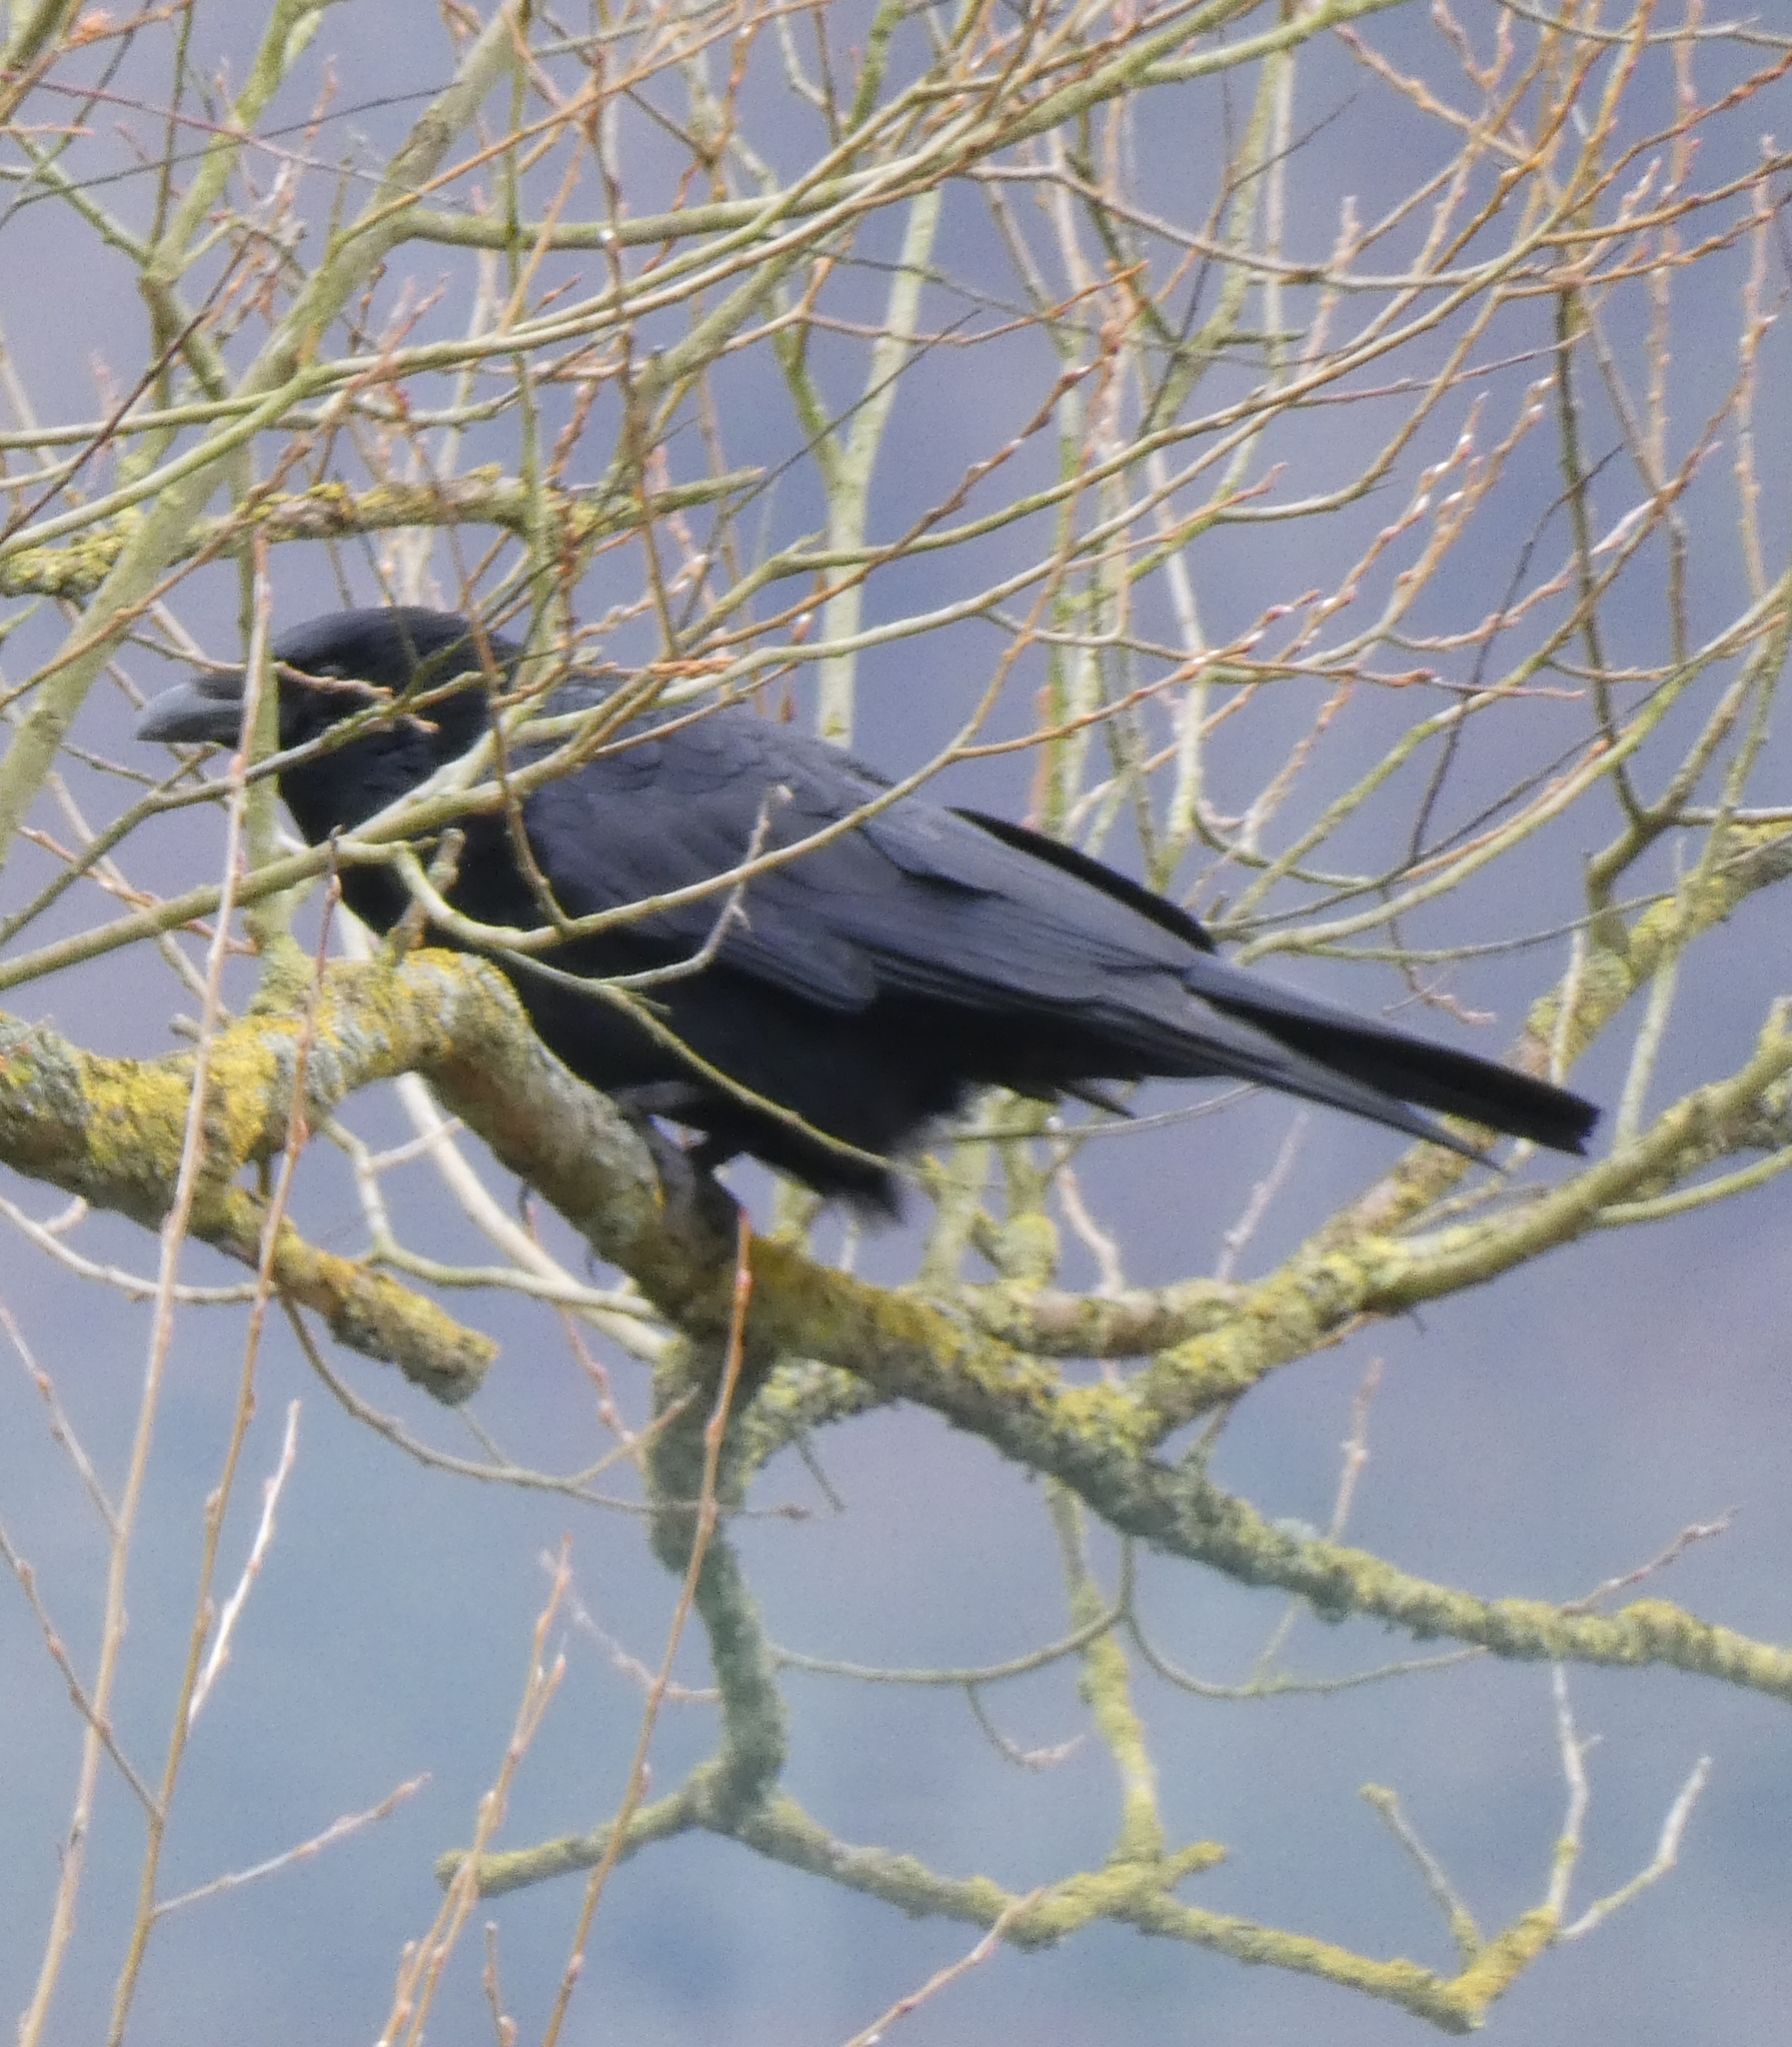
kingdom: Animalia
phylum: Chordata
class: Aves
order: Passeriformes
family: Corvidae
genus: Corvus
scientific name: Corvus corone
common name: Carrion crow
